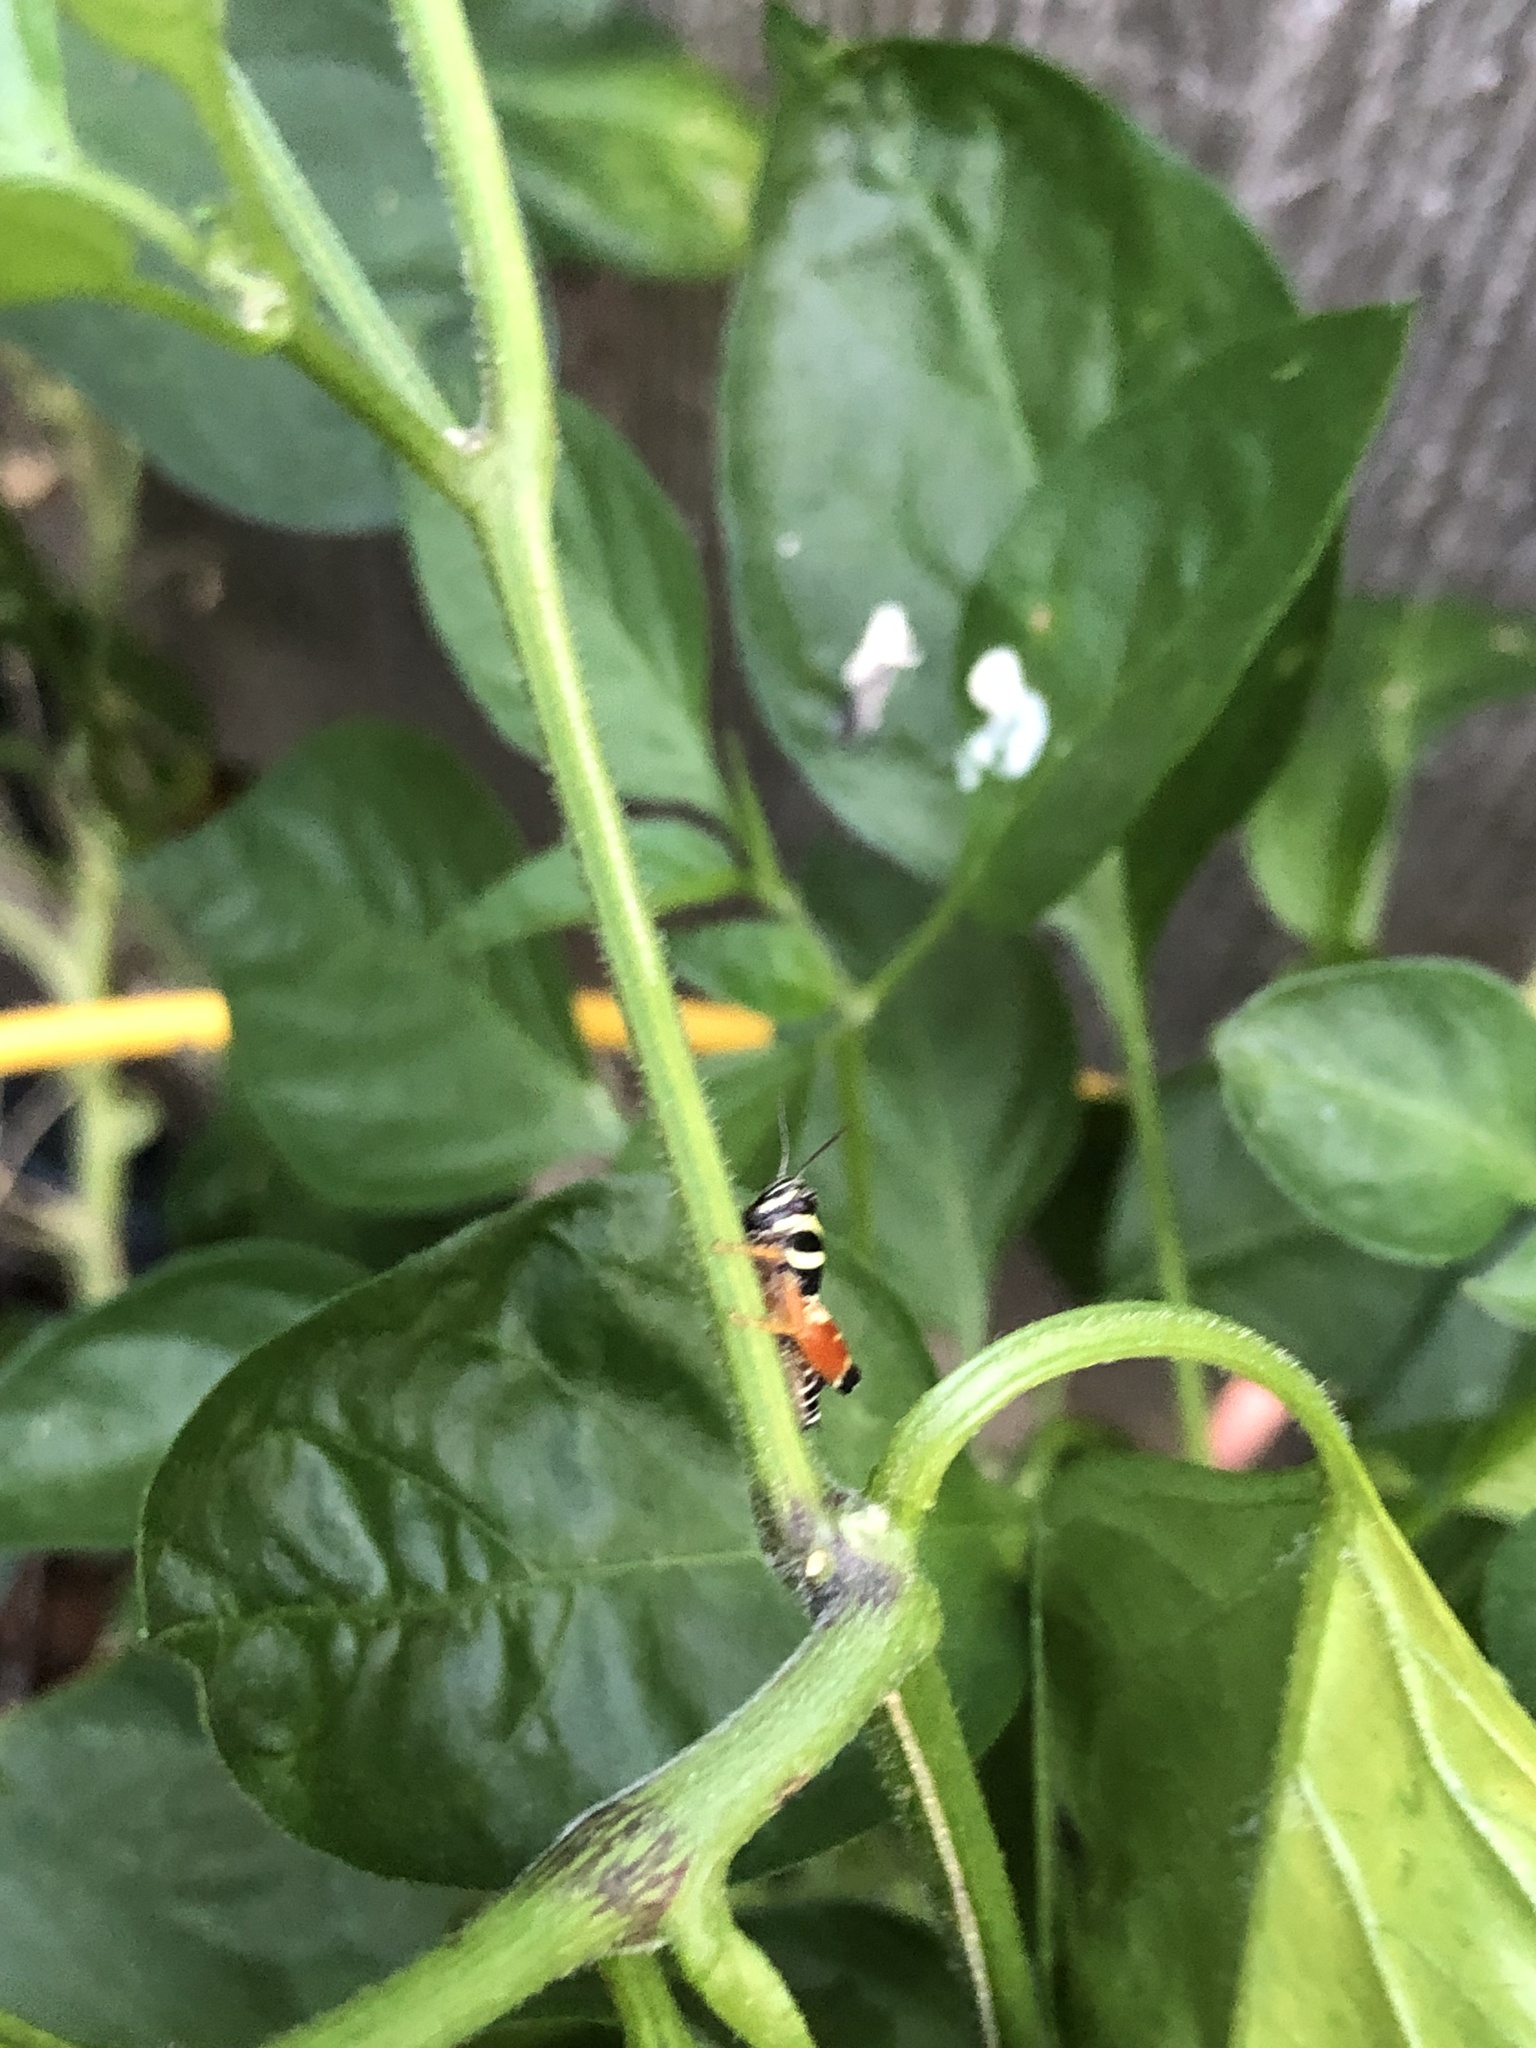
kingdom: Animalia
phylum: Arthropoda
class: Insecta
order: Orthoptera
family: Acrididae
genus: Aidemona
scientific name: Aidemona azteca
